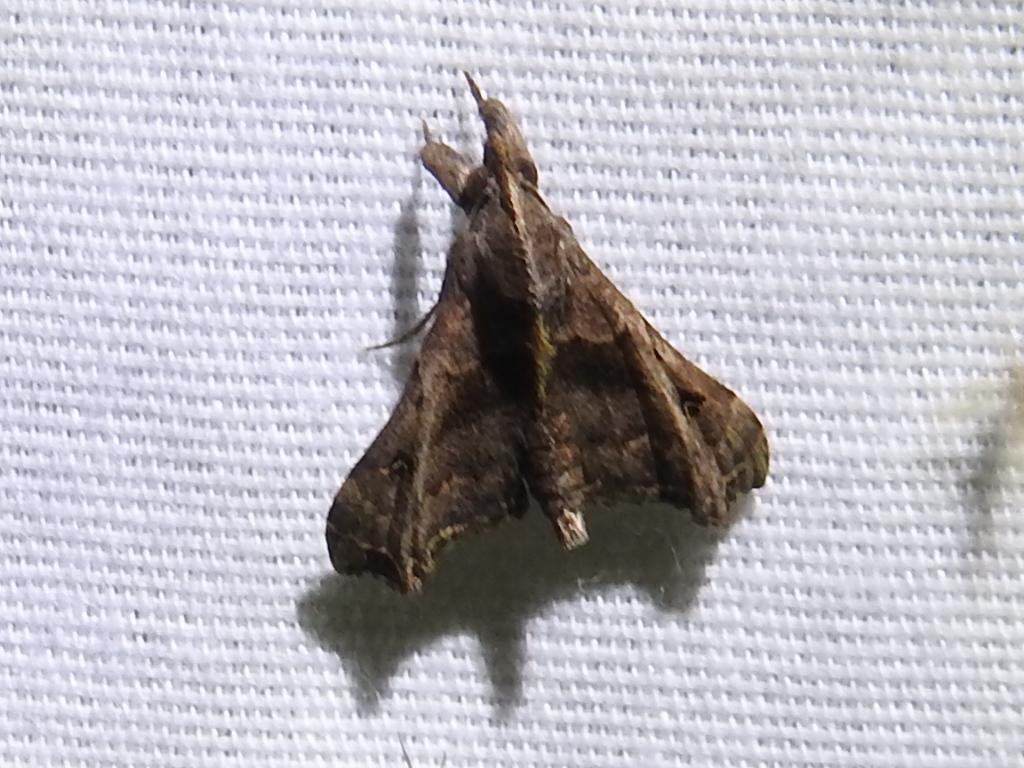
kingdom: Animalia
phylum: Arthropoda
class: Insecta
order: Lepidoptera
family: Erebidae
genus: Palthis
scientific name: Palthis asopialis
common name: Faint-spotted palthis moth
